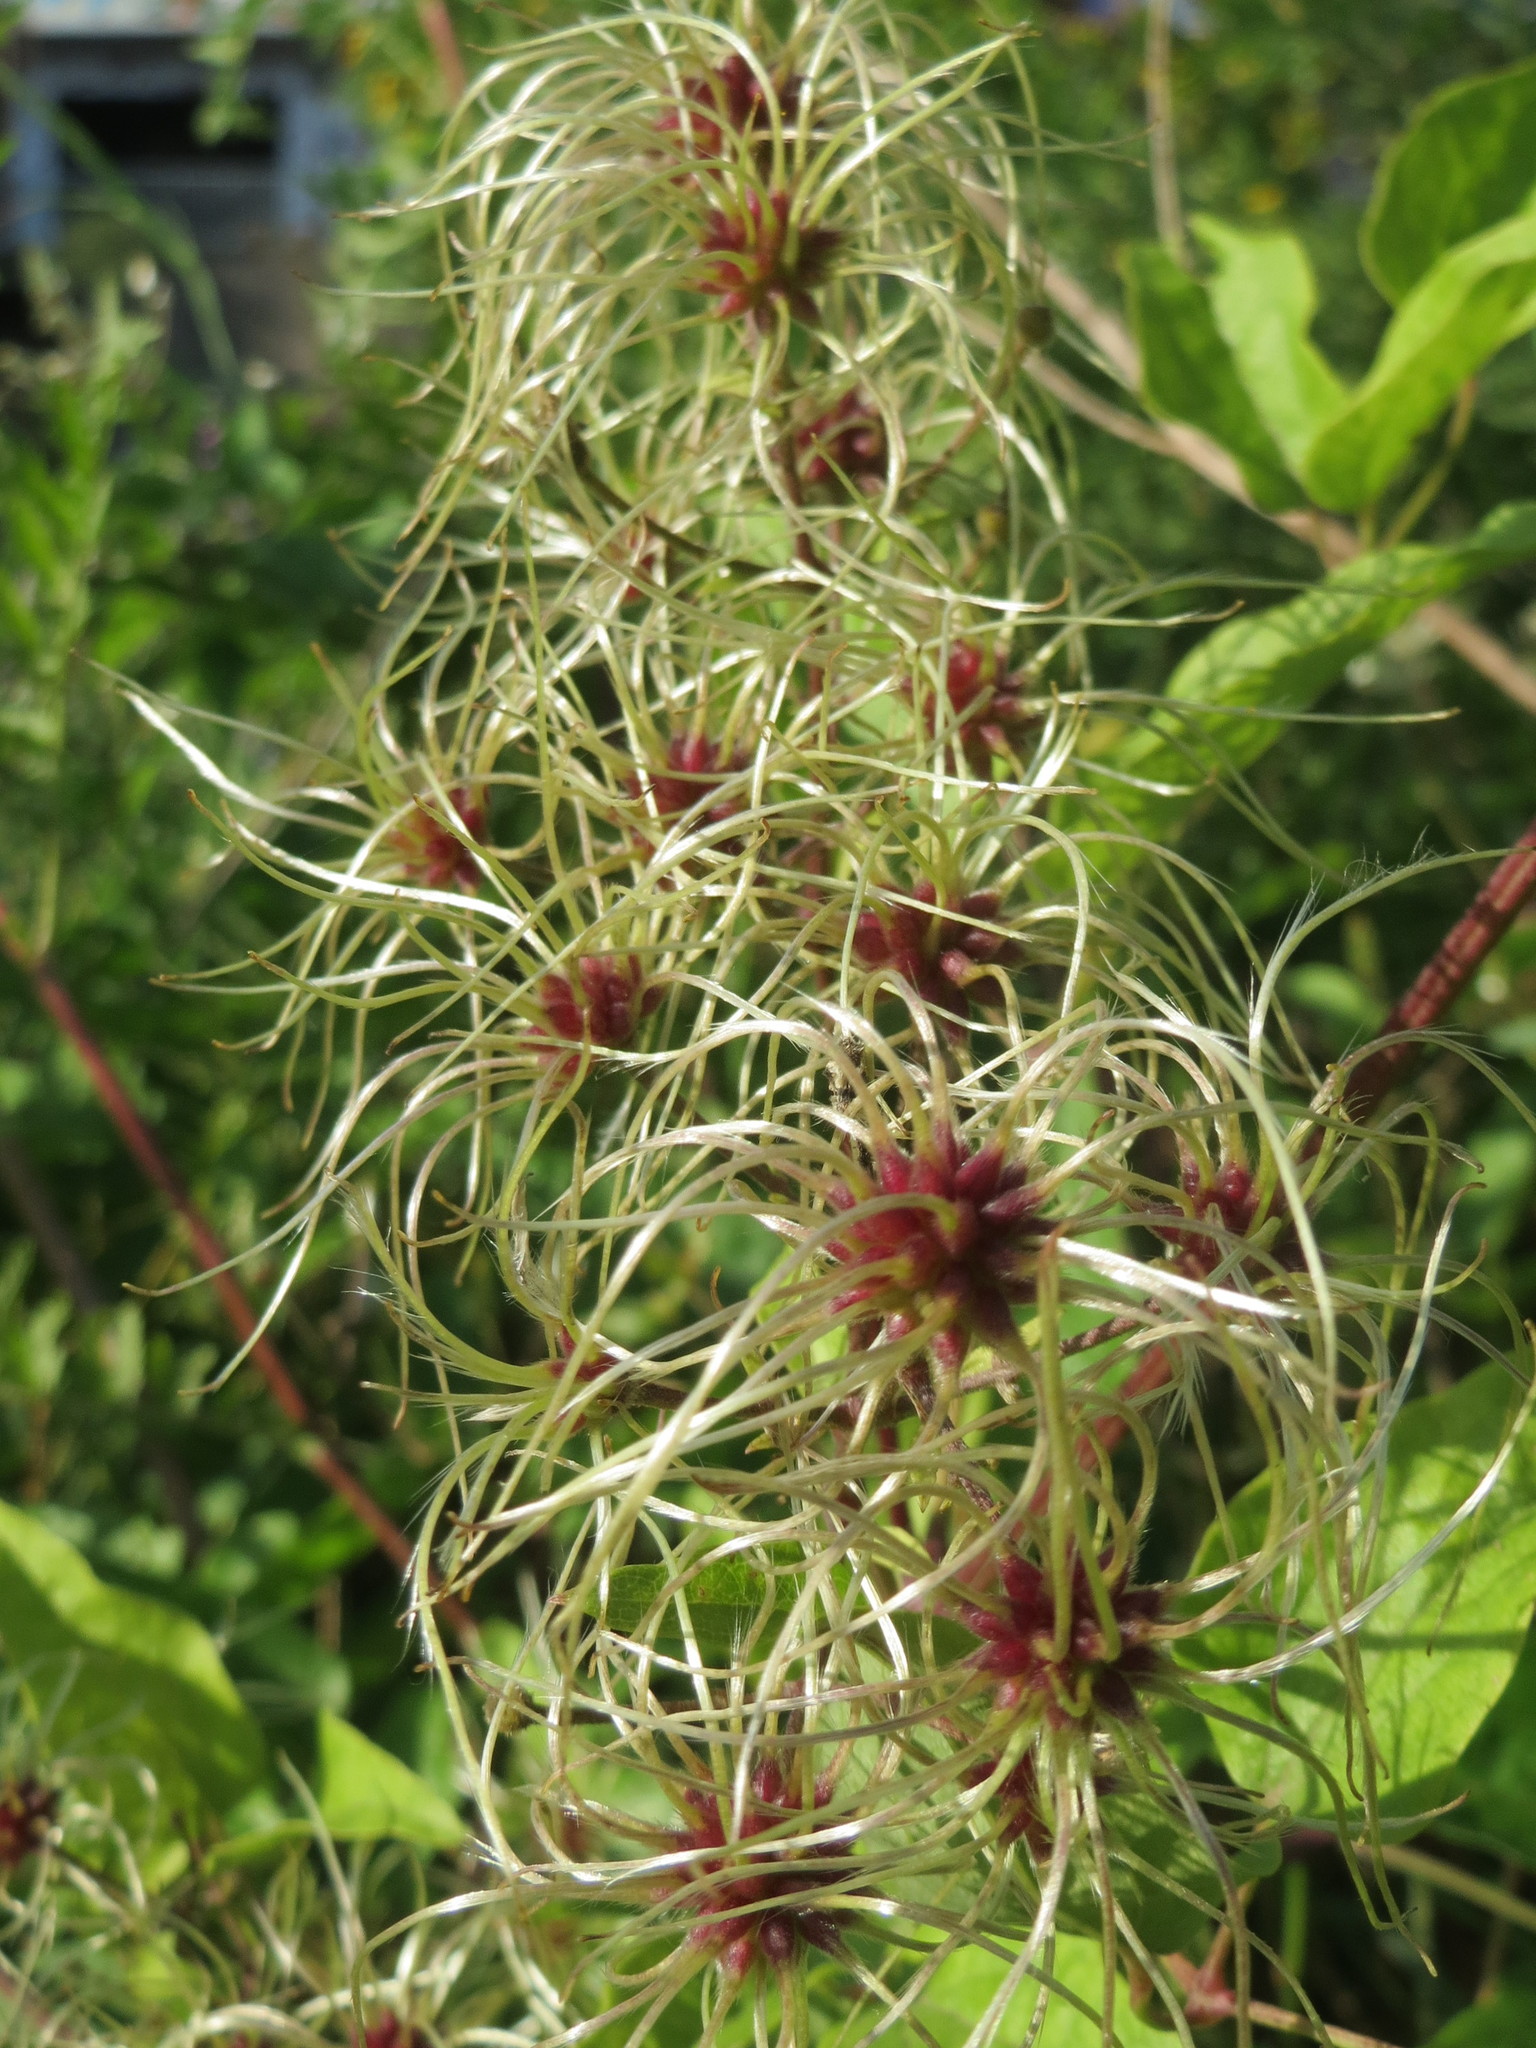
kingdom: Plantae
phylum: Tracheophyta
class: Magnoliopsida
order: Ranunculales
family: Ranunculaceae
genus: Clematis
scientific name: Clematis vitalba
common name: Evergreen clematis
